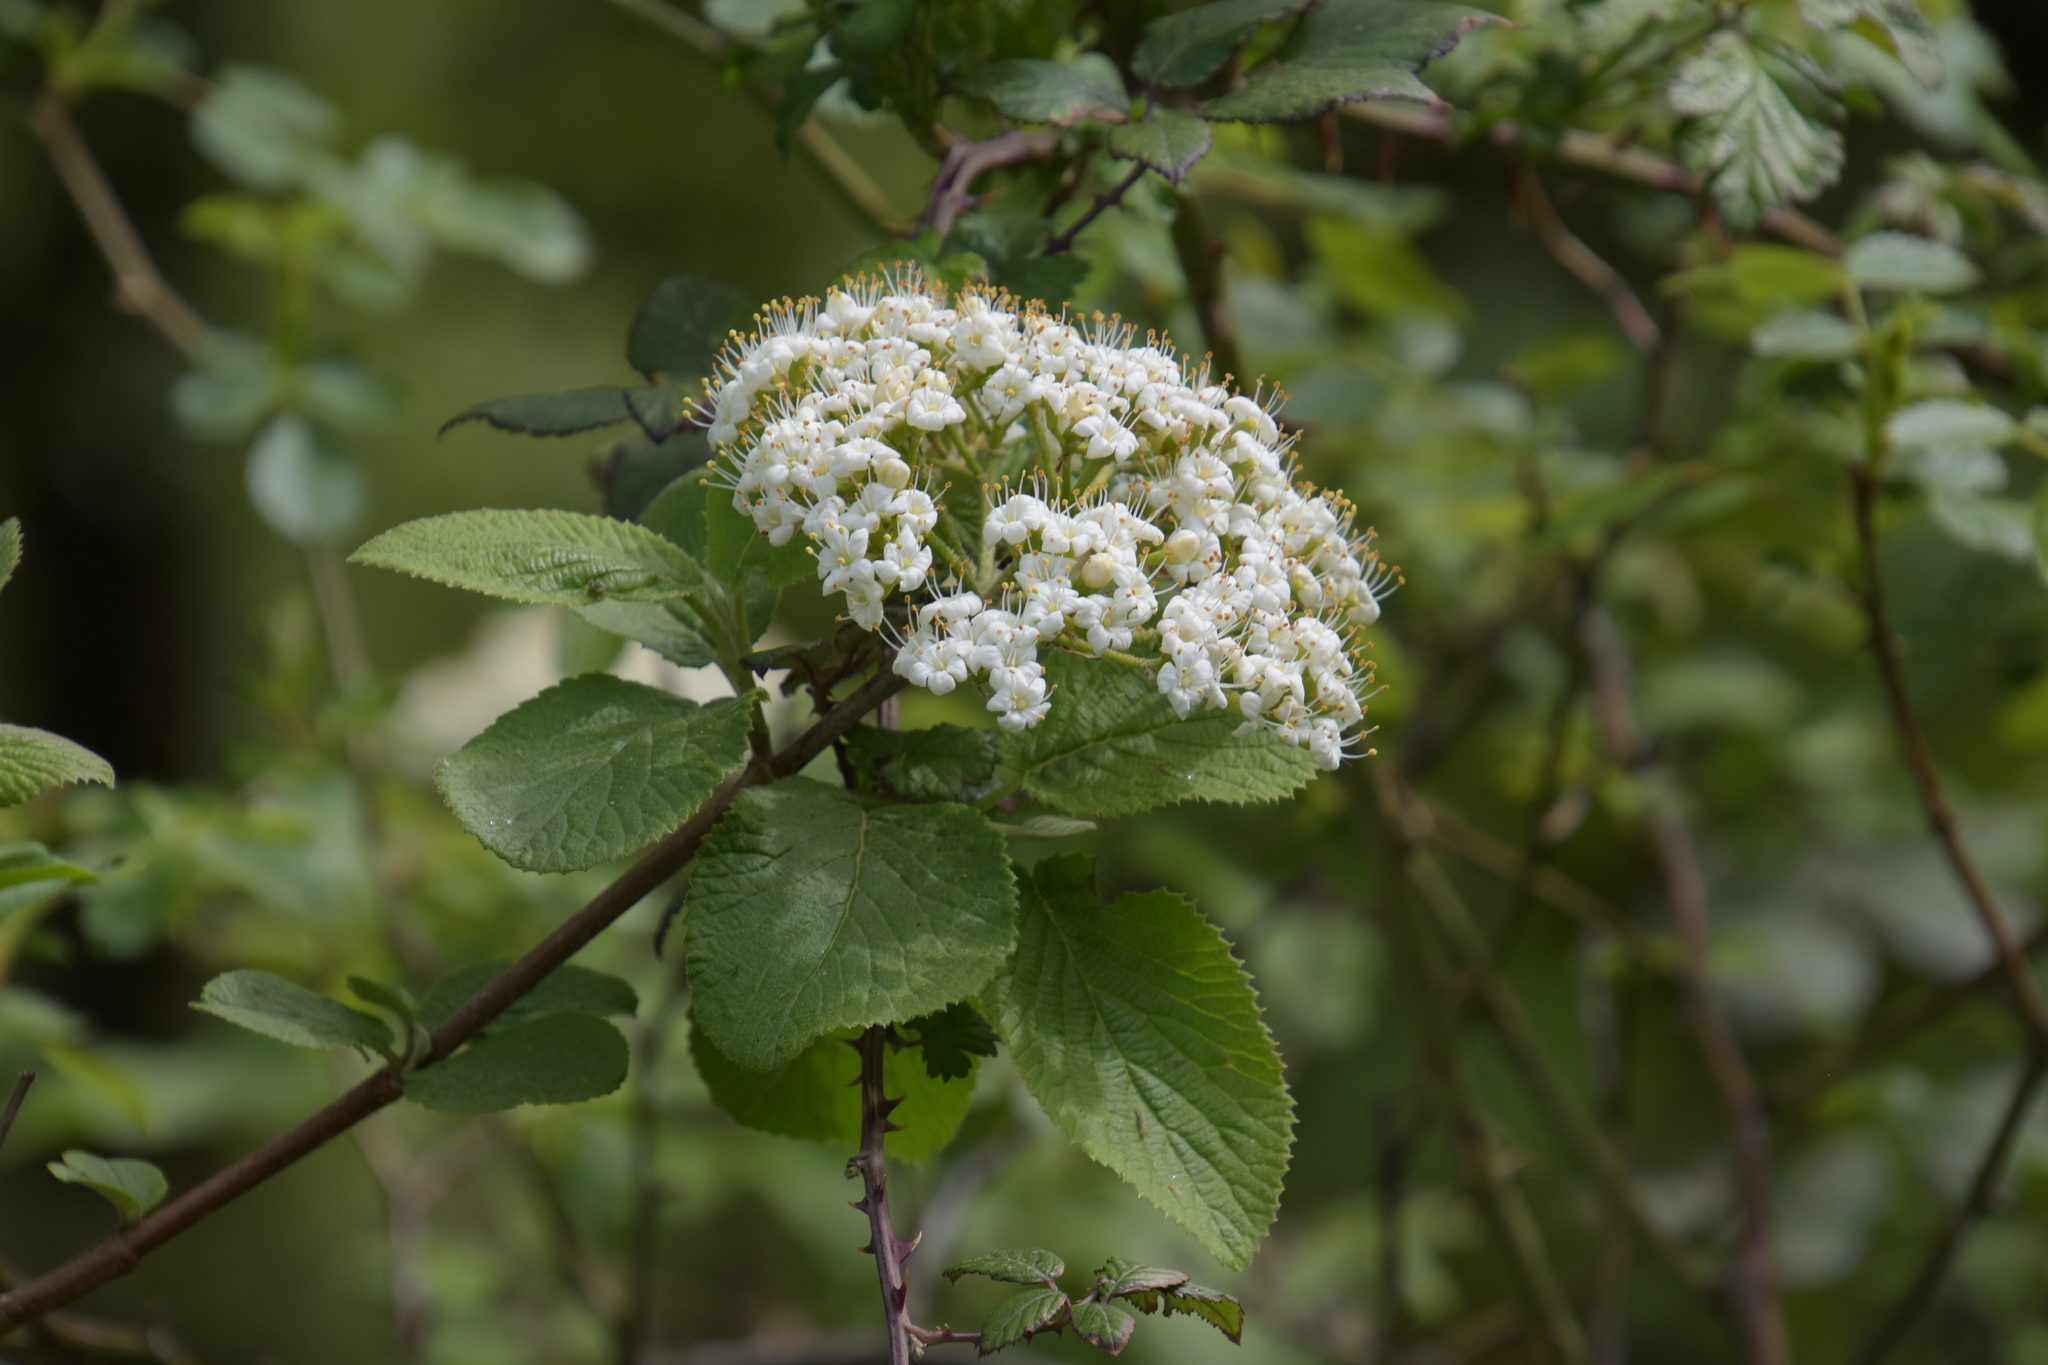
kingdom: Plantae
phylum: Tracheophyta
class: Magnoliopsida
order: Dipsacales
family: Viburnaceae
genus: Viburnum
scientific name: Viburnum lantana
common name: Wayfaring tree
